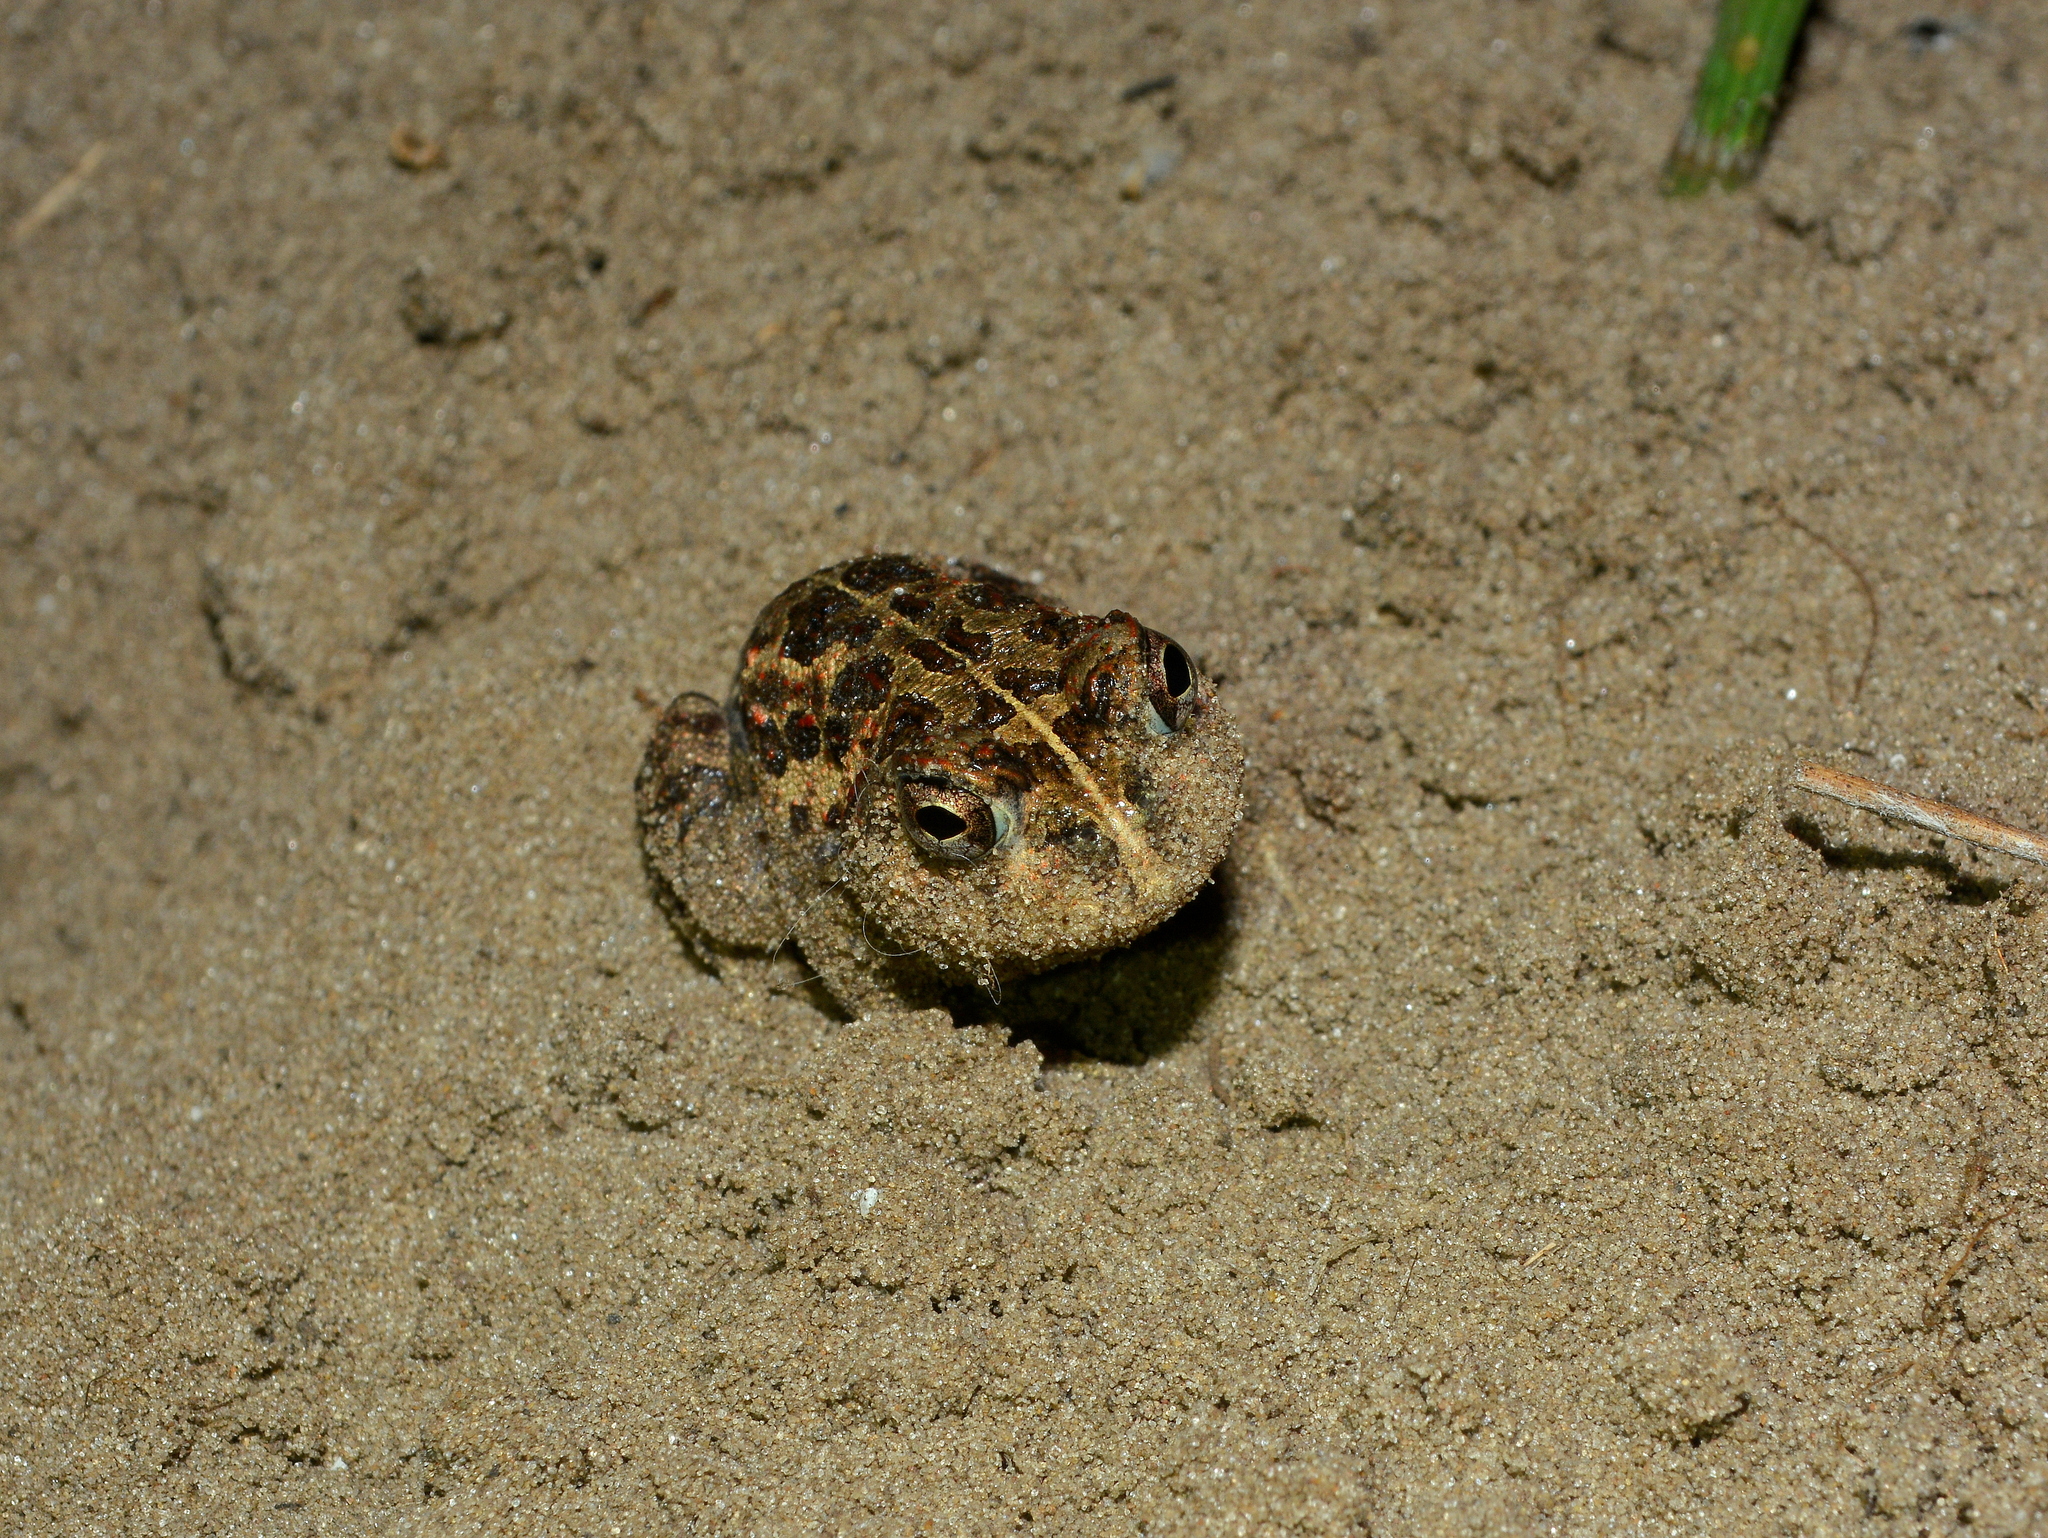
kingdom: Animalia
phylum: Chordata
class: Amphibia
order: Anura
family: Odontophrynidae
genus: Odontophrynus
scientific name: Odontophrynus
